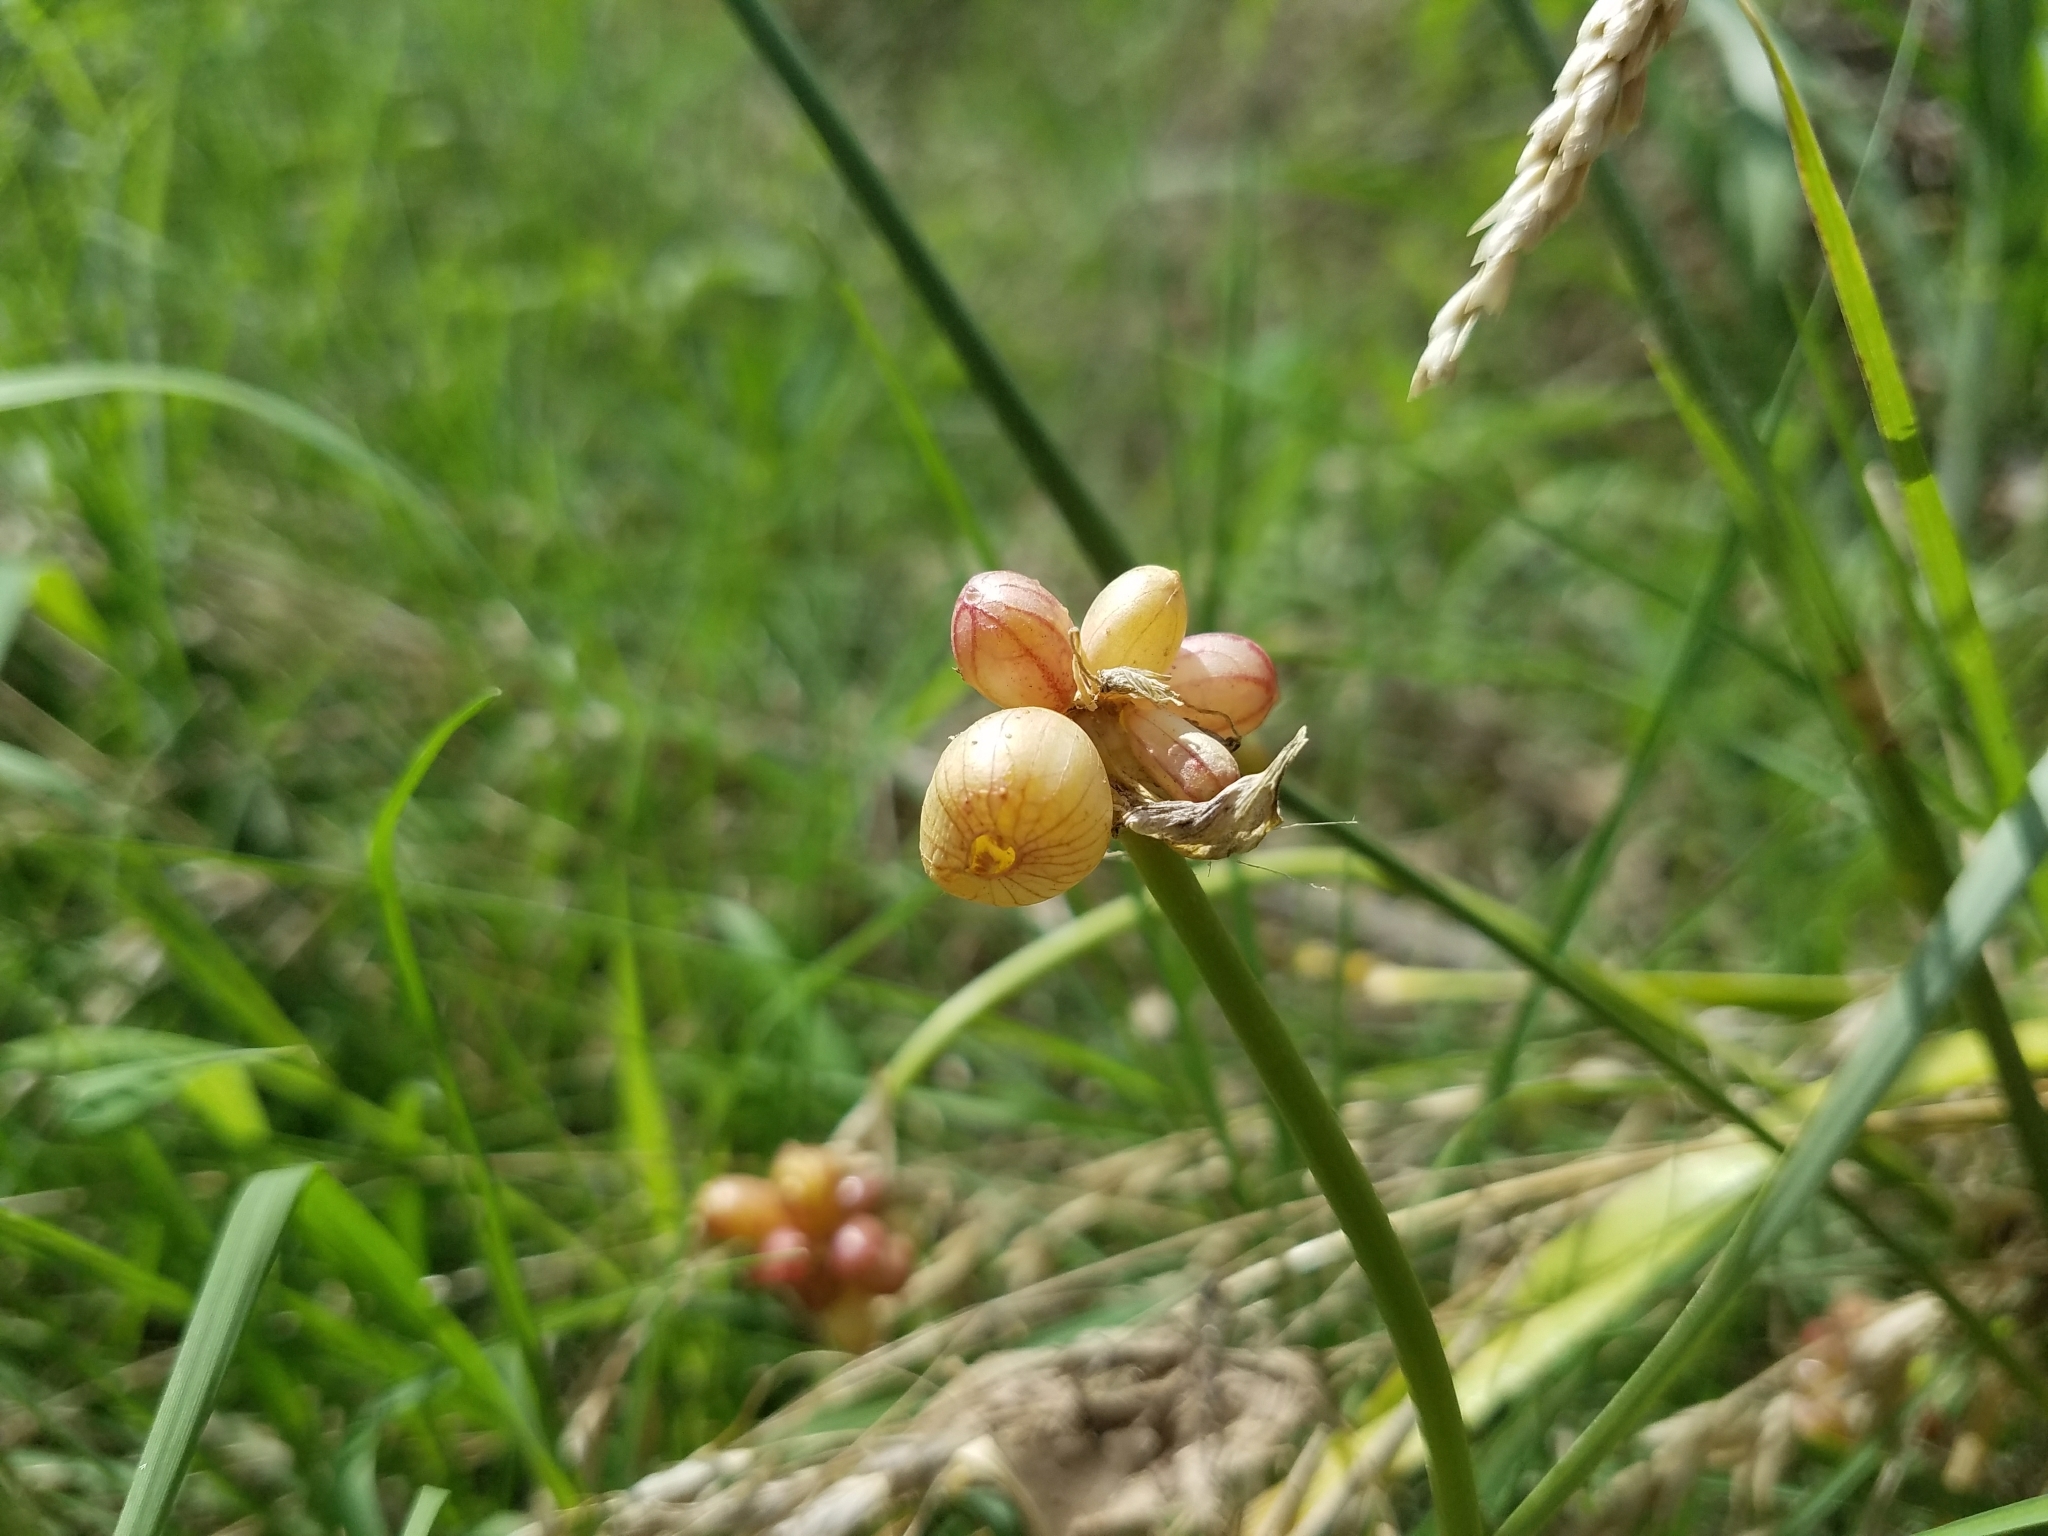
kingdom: Plantae
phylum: Tracheophyta
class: Liliopsida
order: Asparagales
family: Amaryllidaceae
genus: Allium
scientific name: Allium vineale
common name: Crow garlic
